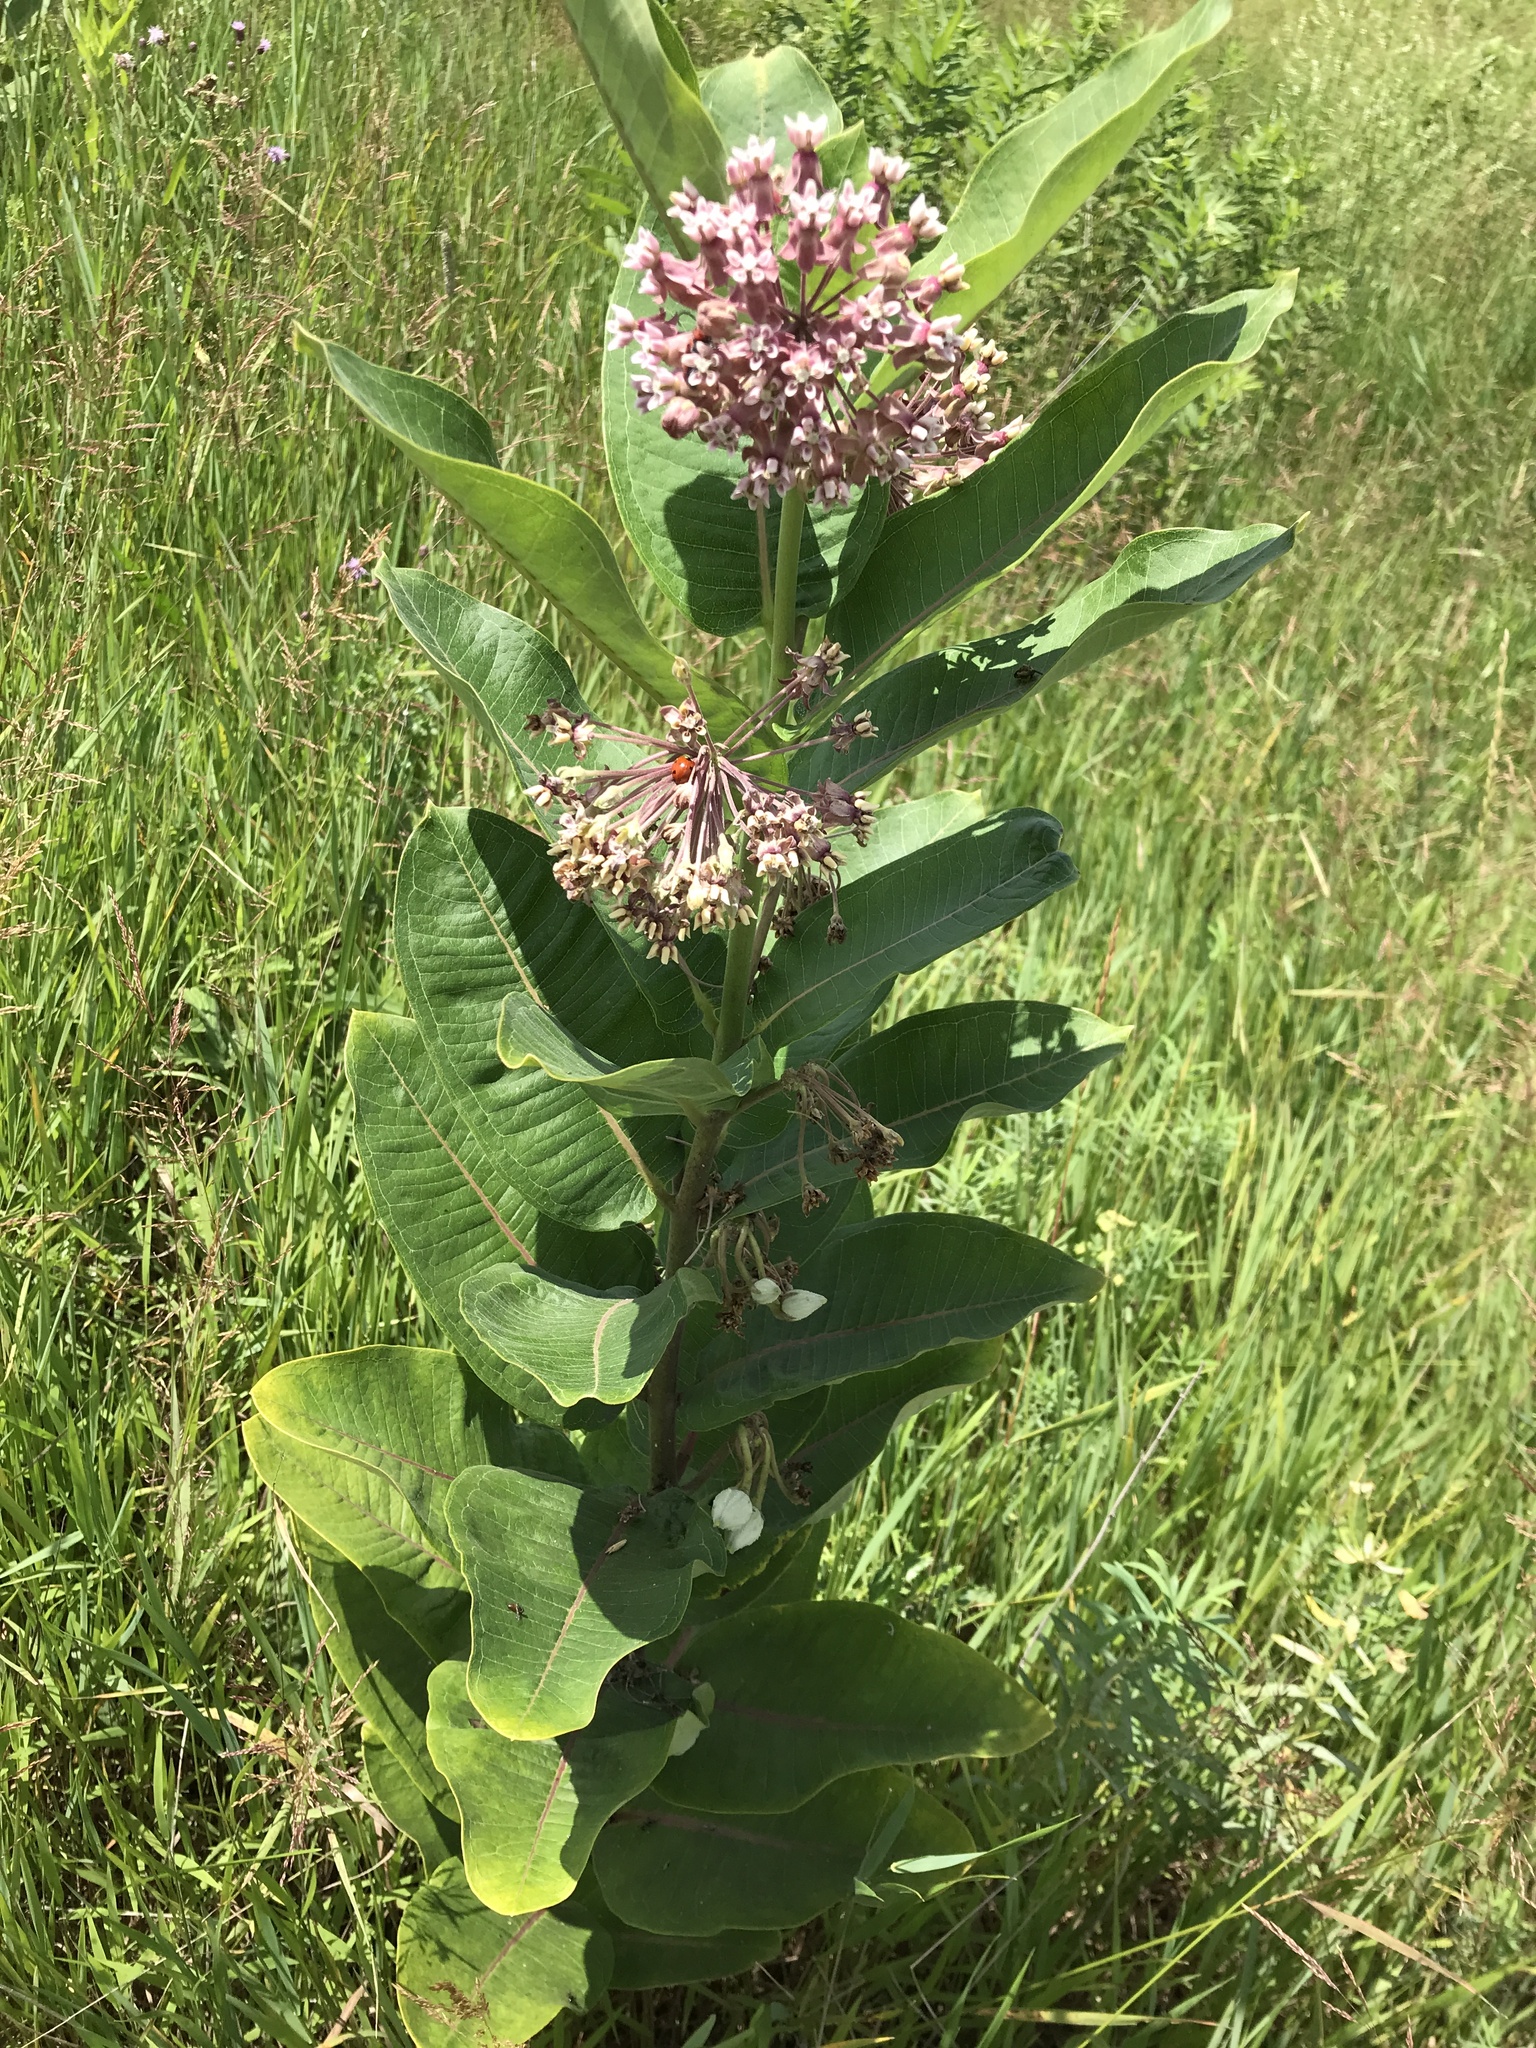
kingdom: Plantae
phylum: Tracheophyta
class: Magnoliopsida
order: Gentianales
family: Apocynaceae
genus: Asclepias
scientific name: Asclepias syriaca
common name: Common milkweed
